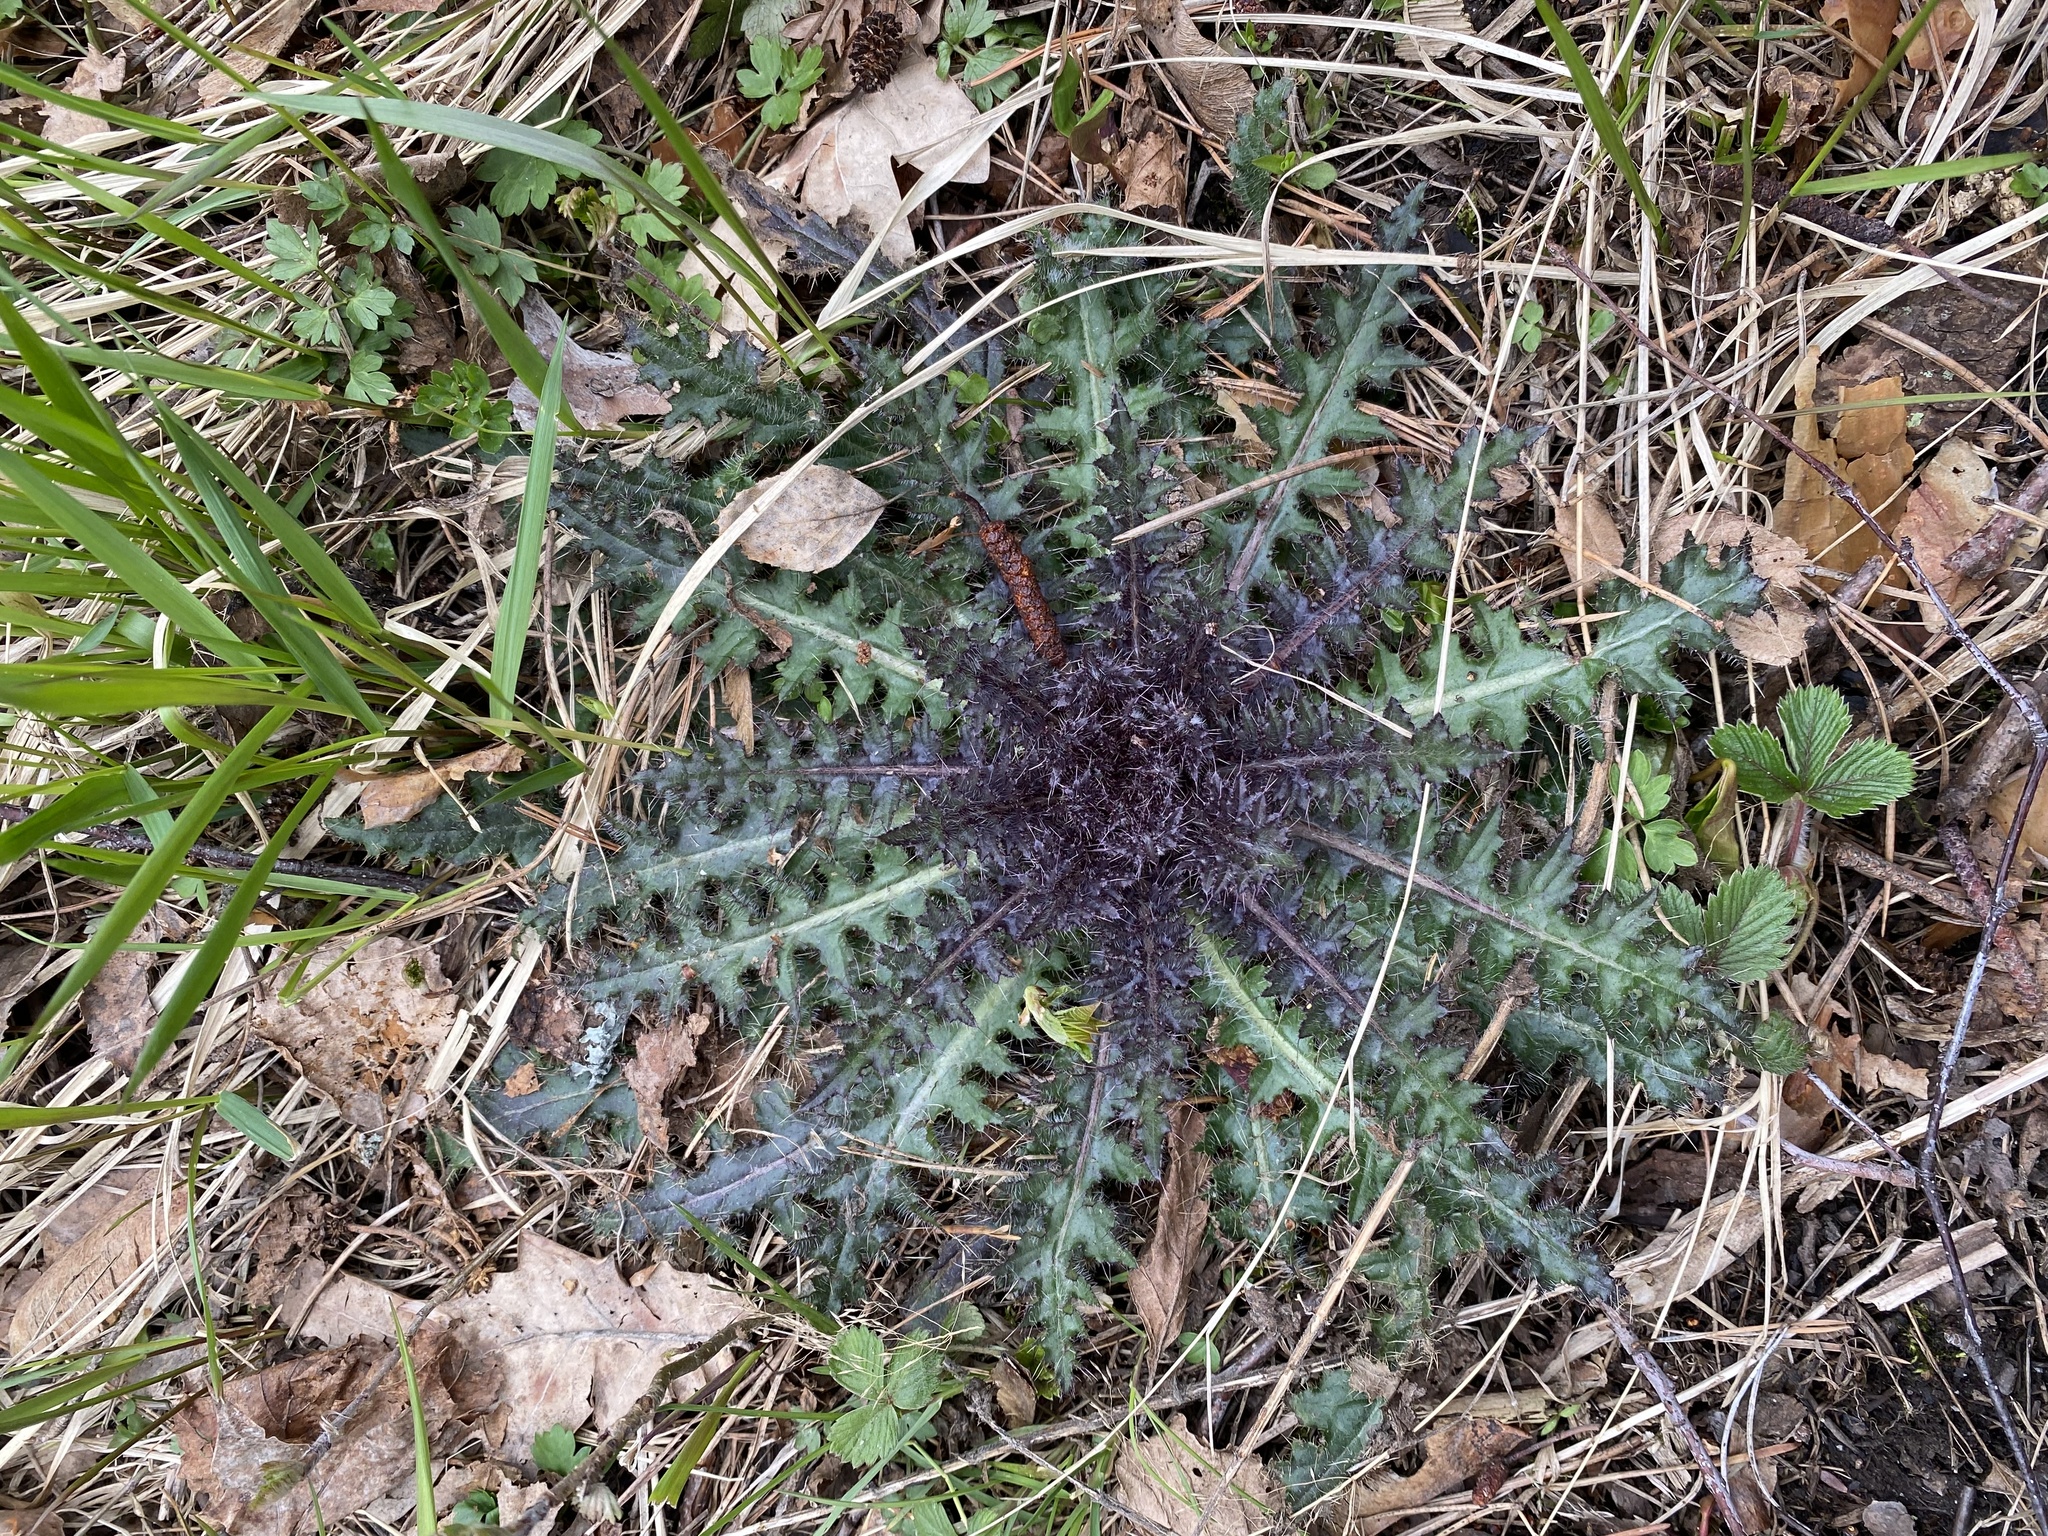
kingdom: Plantae
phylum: Tracheophyta
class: Magnoliopsida
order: Asterales
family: Asteraceae
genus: Cirsium
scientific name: Cirsium palustre
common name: Marsh thistle
